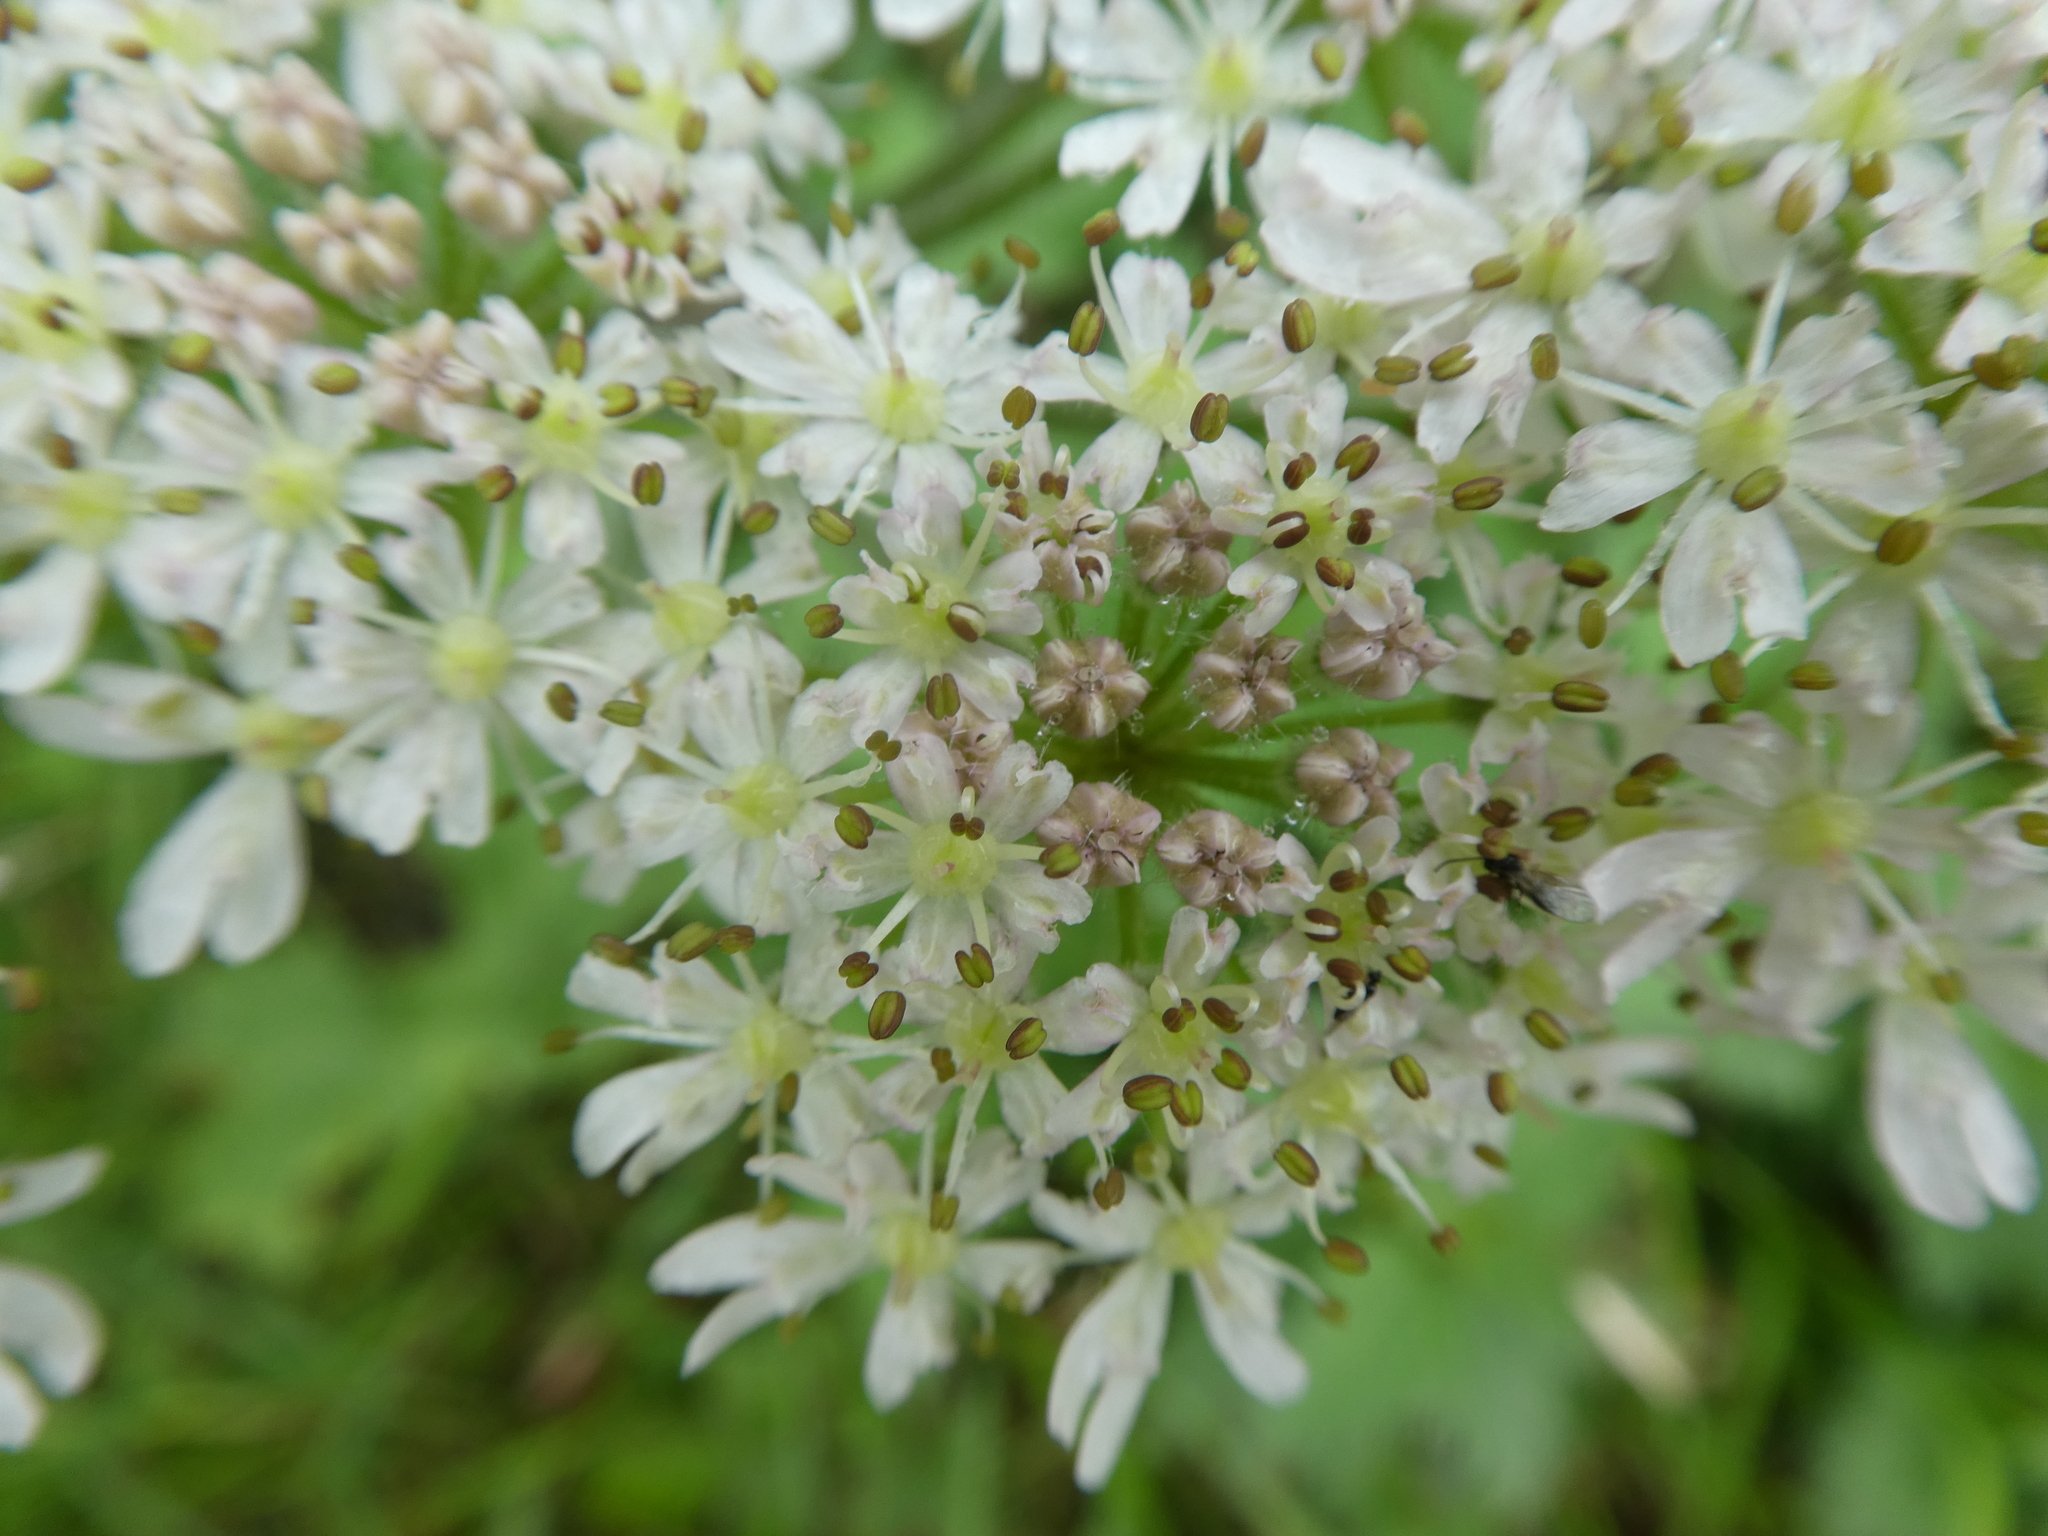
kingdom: Plantae
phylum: Tracheophyta
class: Magnoliopsida
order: Apiales
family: Apiaceae
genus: Heracleum
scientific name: Heracleum sphondylium
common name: Hogweed
